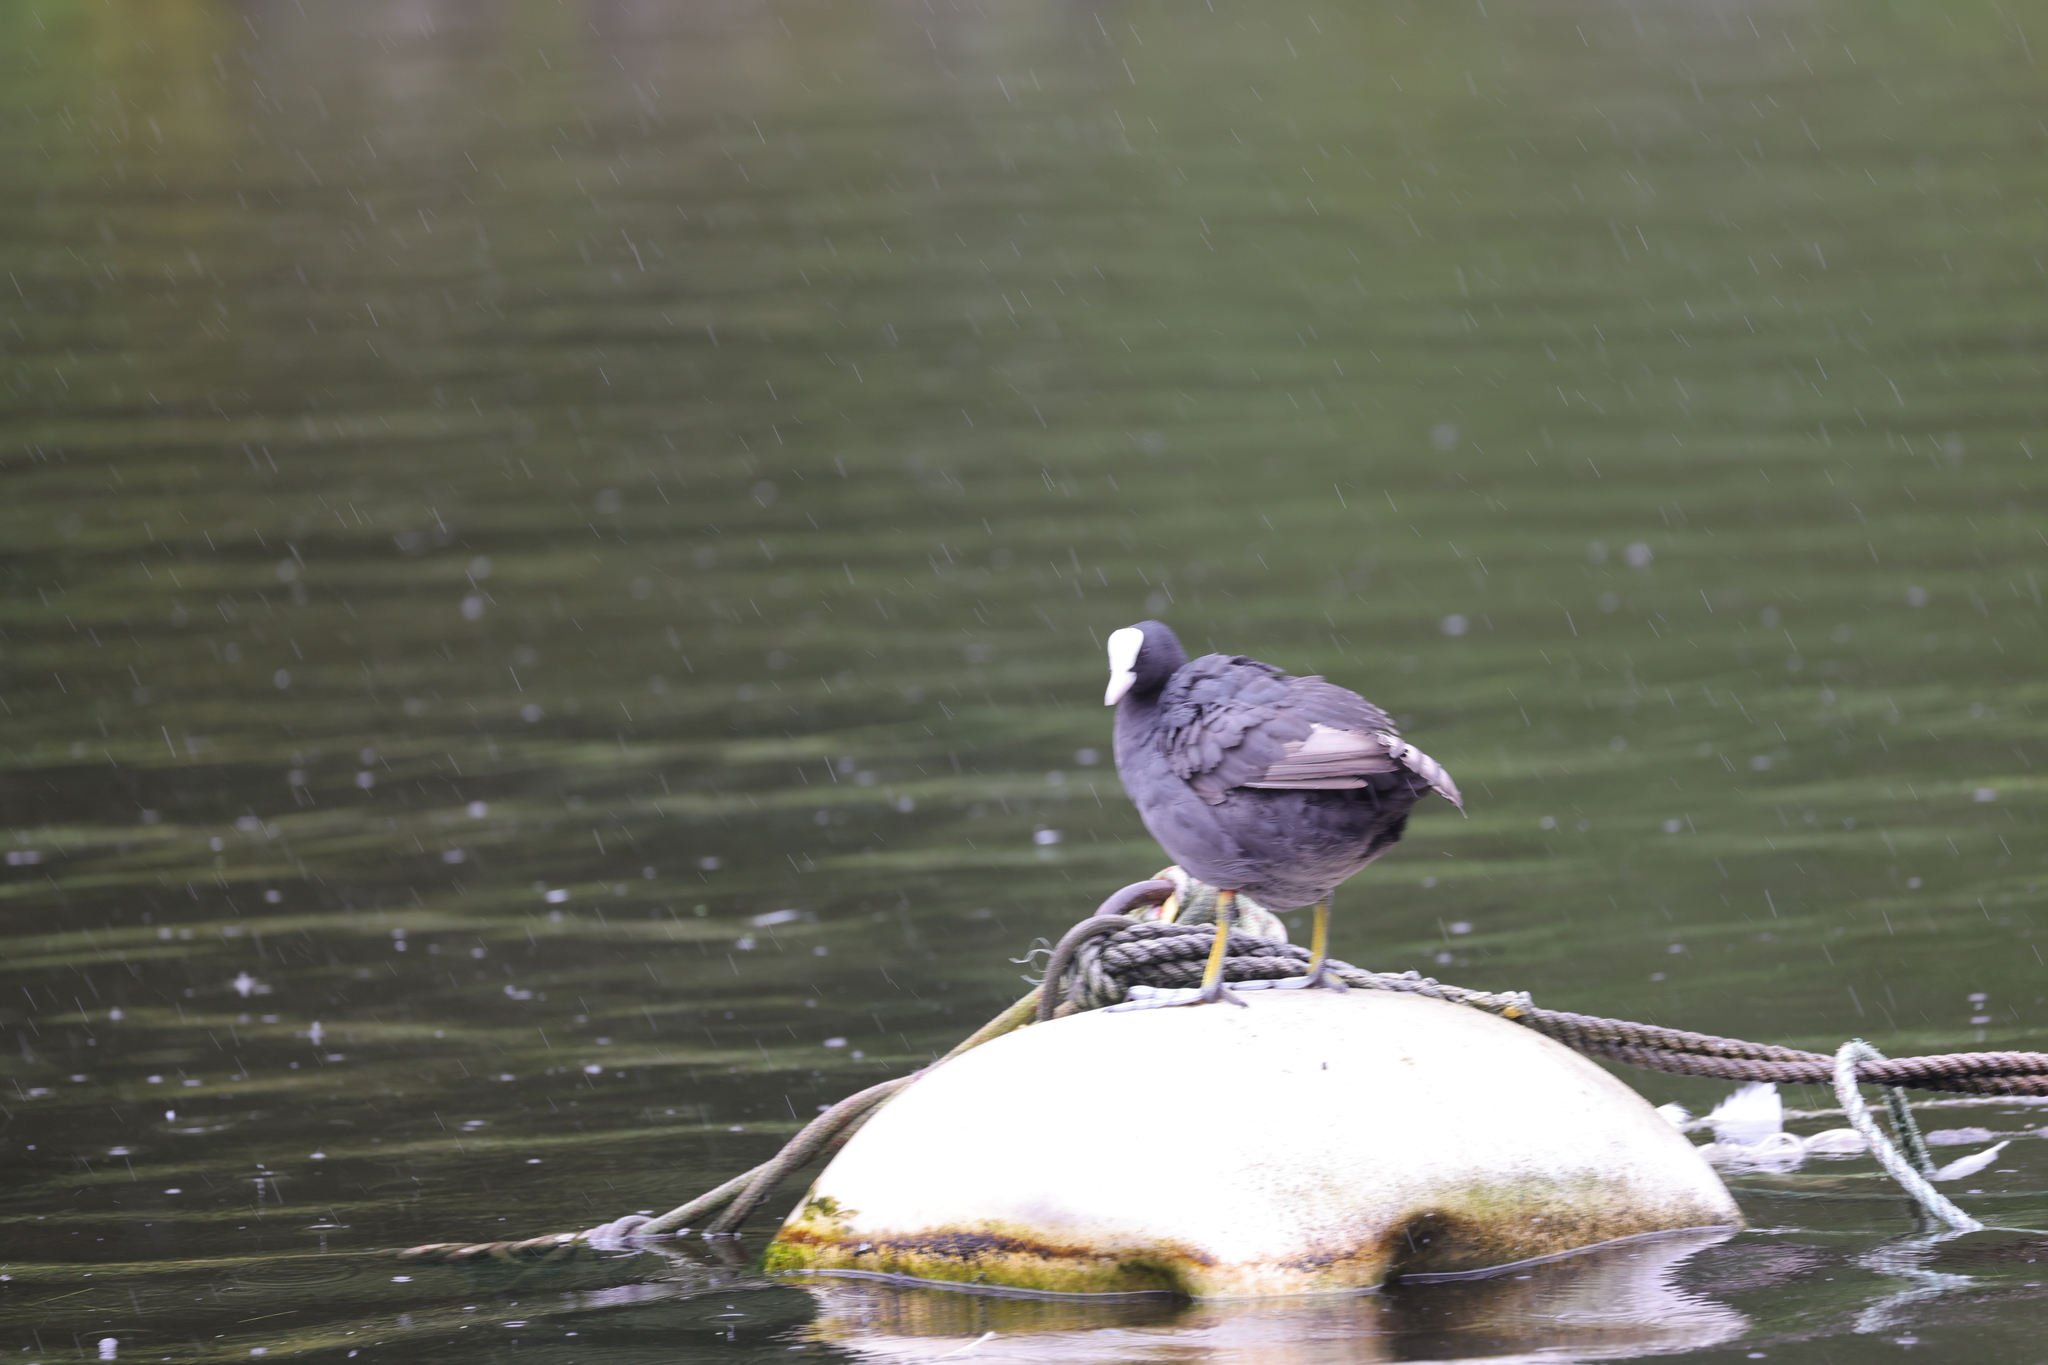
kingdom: Animalia
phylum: Chordata
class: Aves
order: Gruiformes
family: Rallidae
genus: Fulica
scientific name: Fulica atra
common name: Eurasian coot
